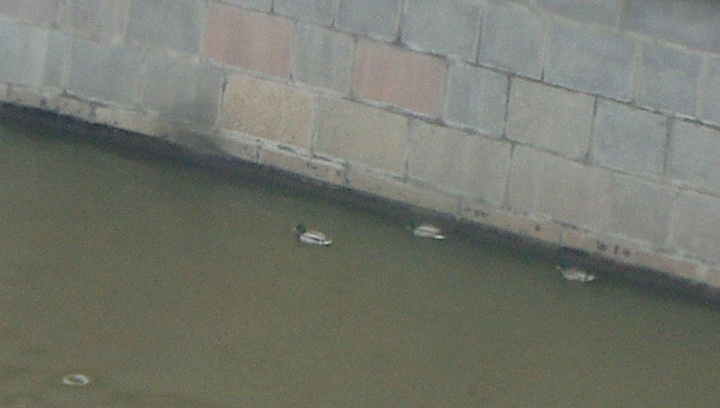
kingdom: Animalia
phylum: Chordata
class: Aves
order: Anseriformes
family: Anatidae
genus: Anas
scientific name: Anas platyrhynchos
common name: Mallard
